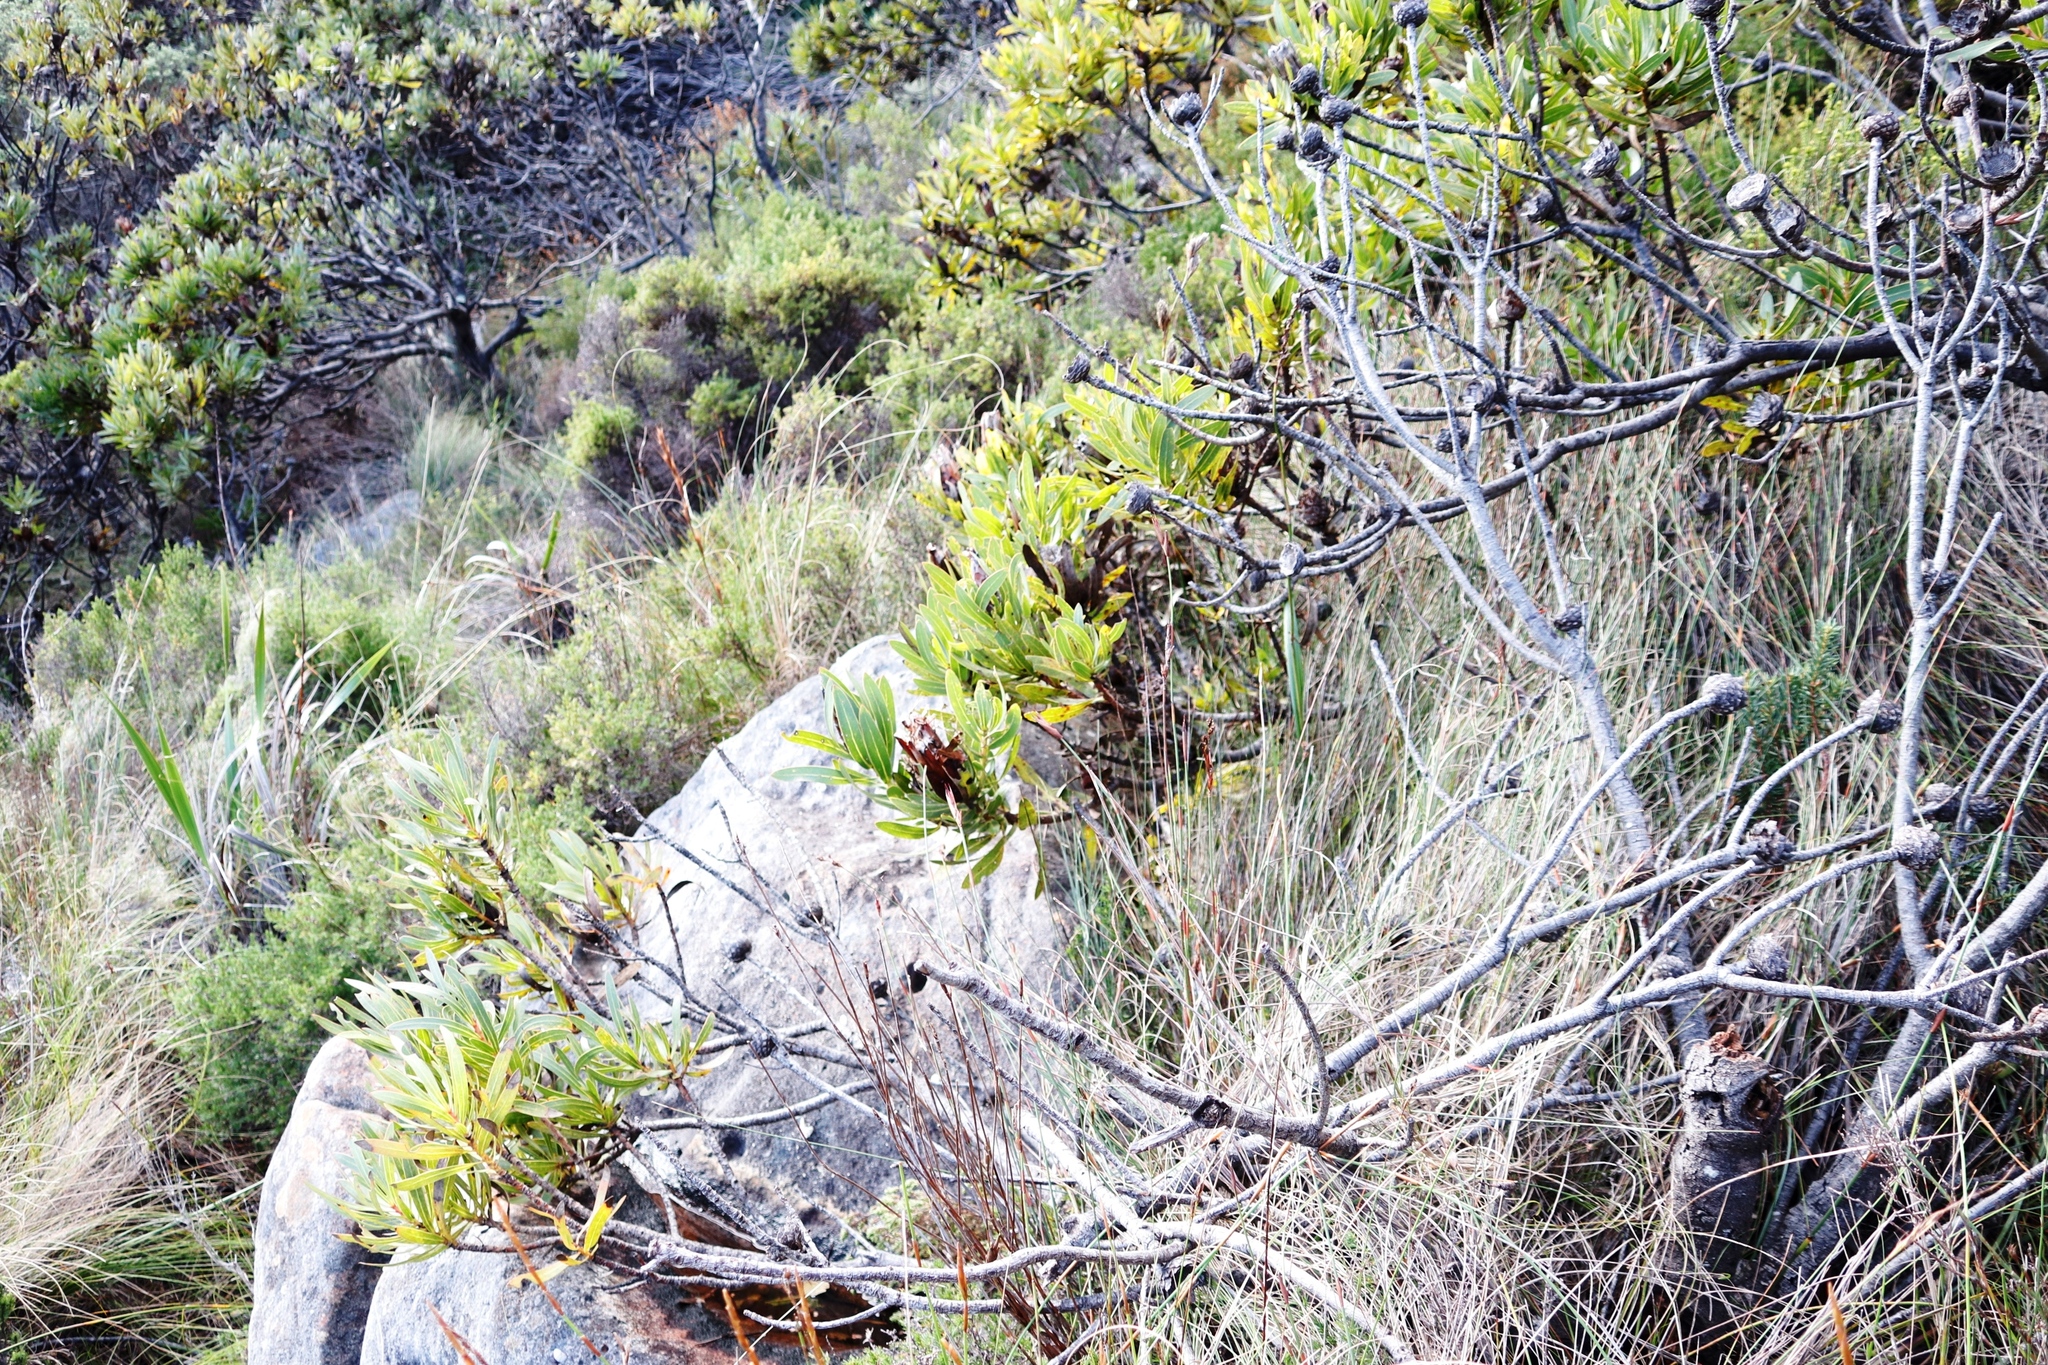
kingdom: Plantae
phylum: Tracheophyta
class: Magnoliopsida
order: Proteales
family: Proteaceae
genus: Protea
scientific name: Protea lepidocarpodendron
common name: Black-bearded protea
